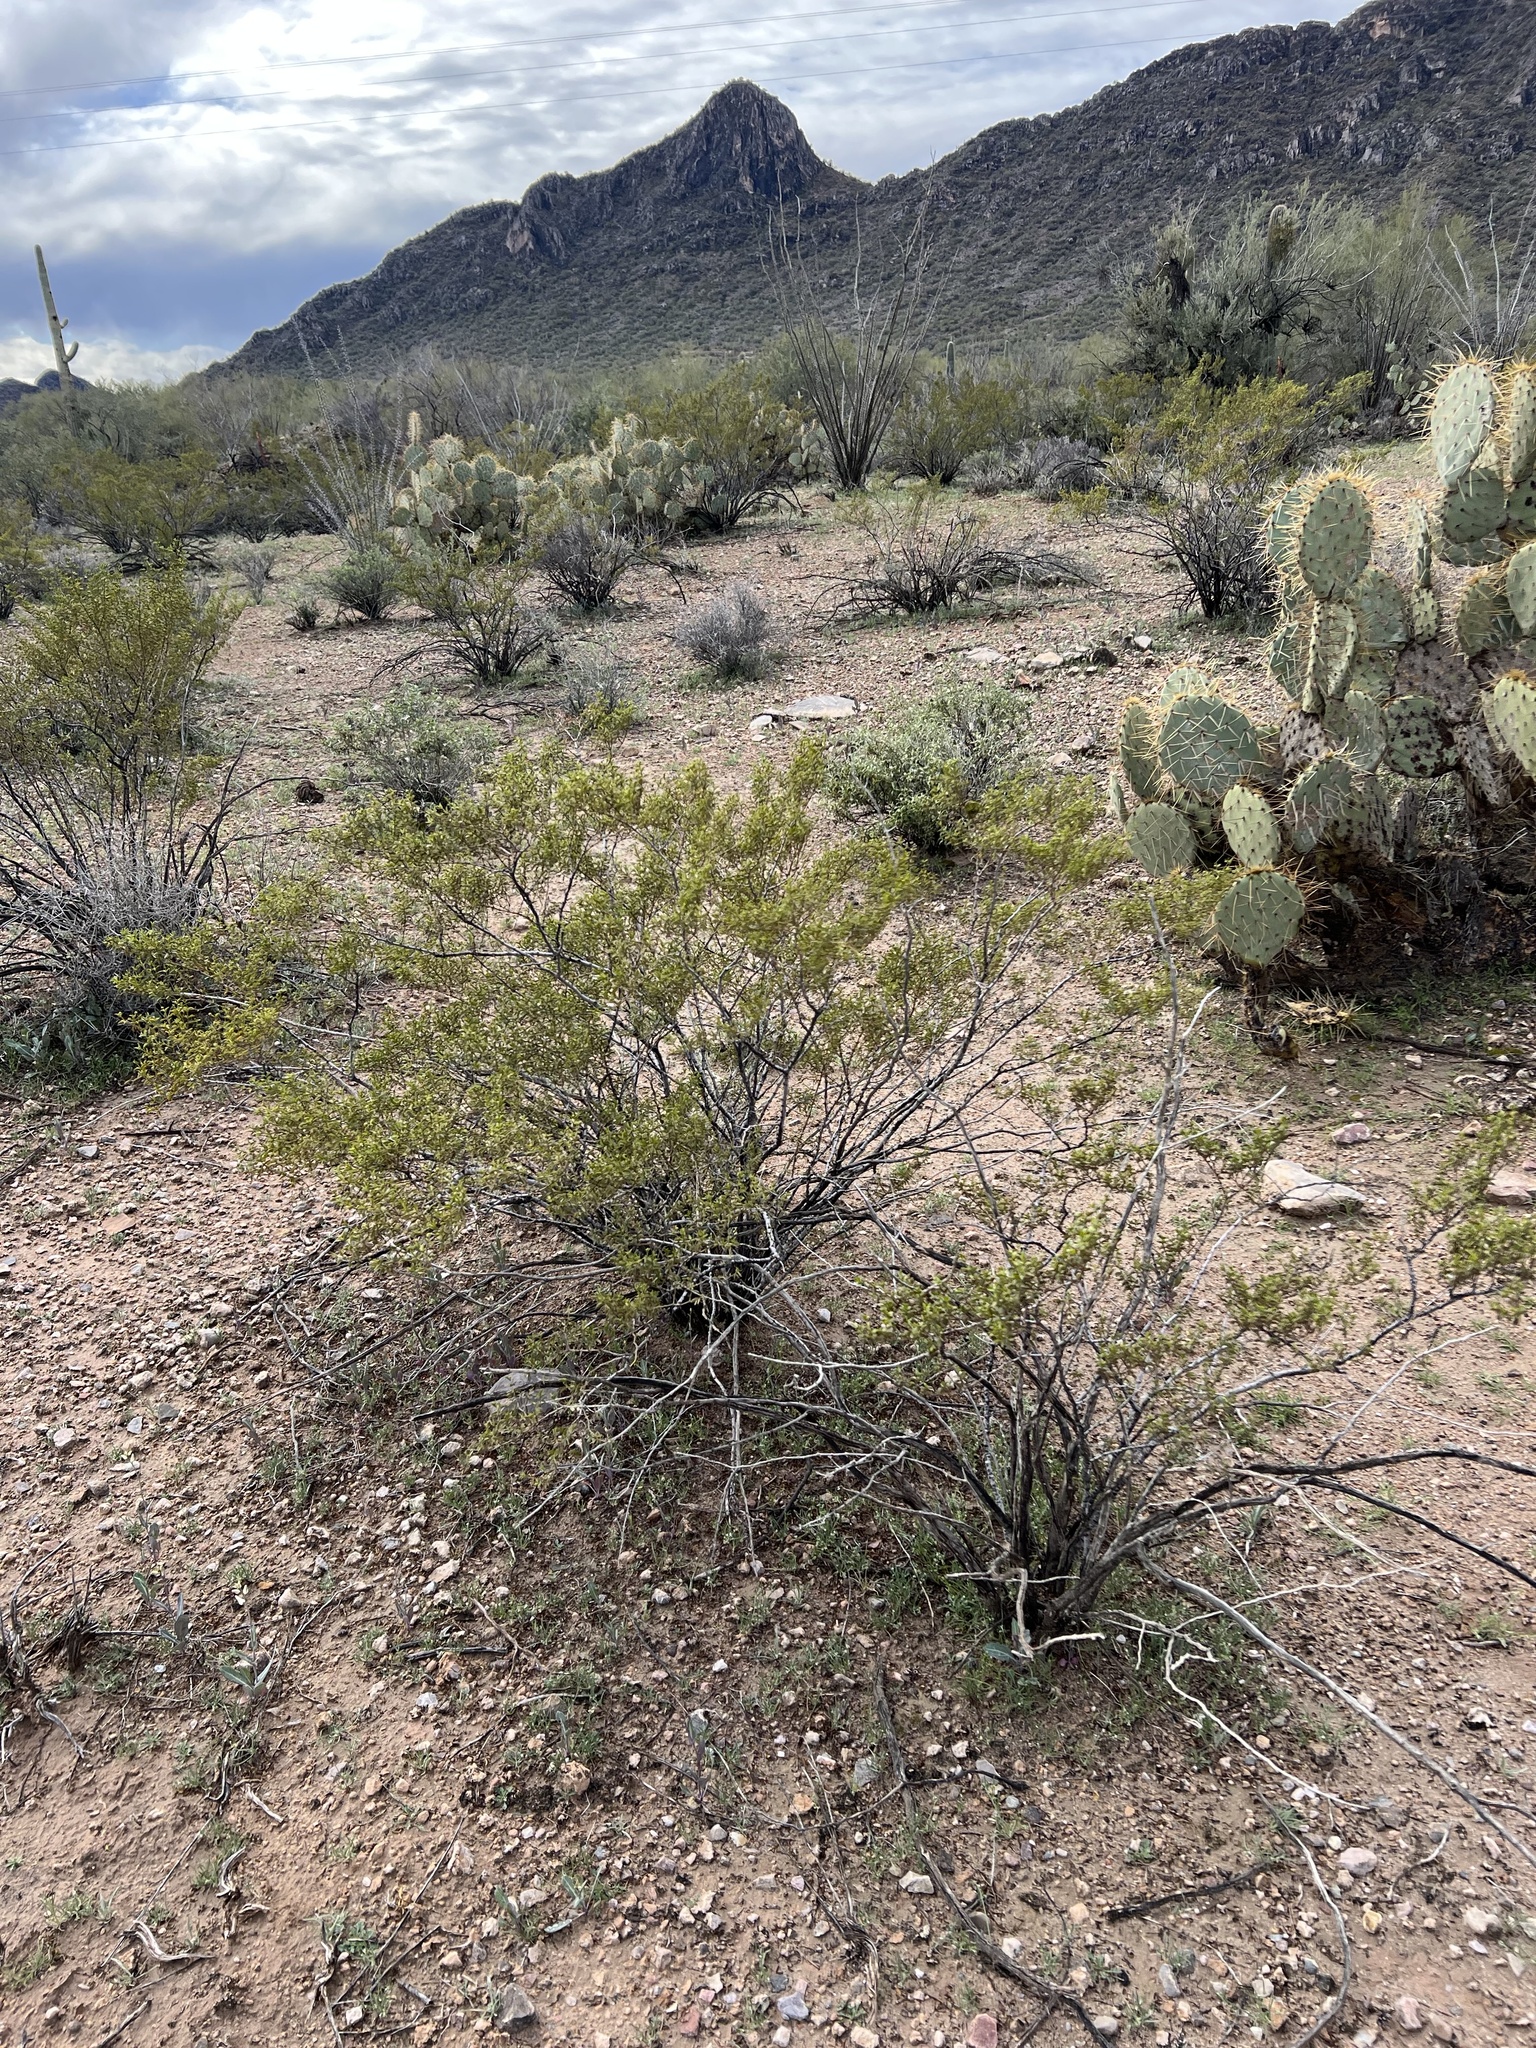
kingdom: Plantae
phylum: Tracheophyta
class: Magnoliopsida
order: Zygophyllales
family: Zygophyllaceae
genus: Larrea
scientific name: Larrea tridentata
